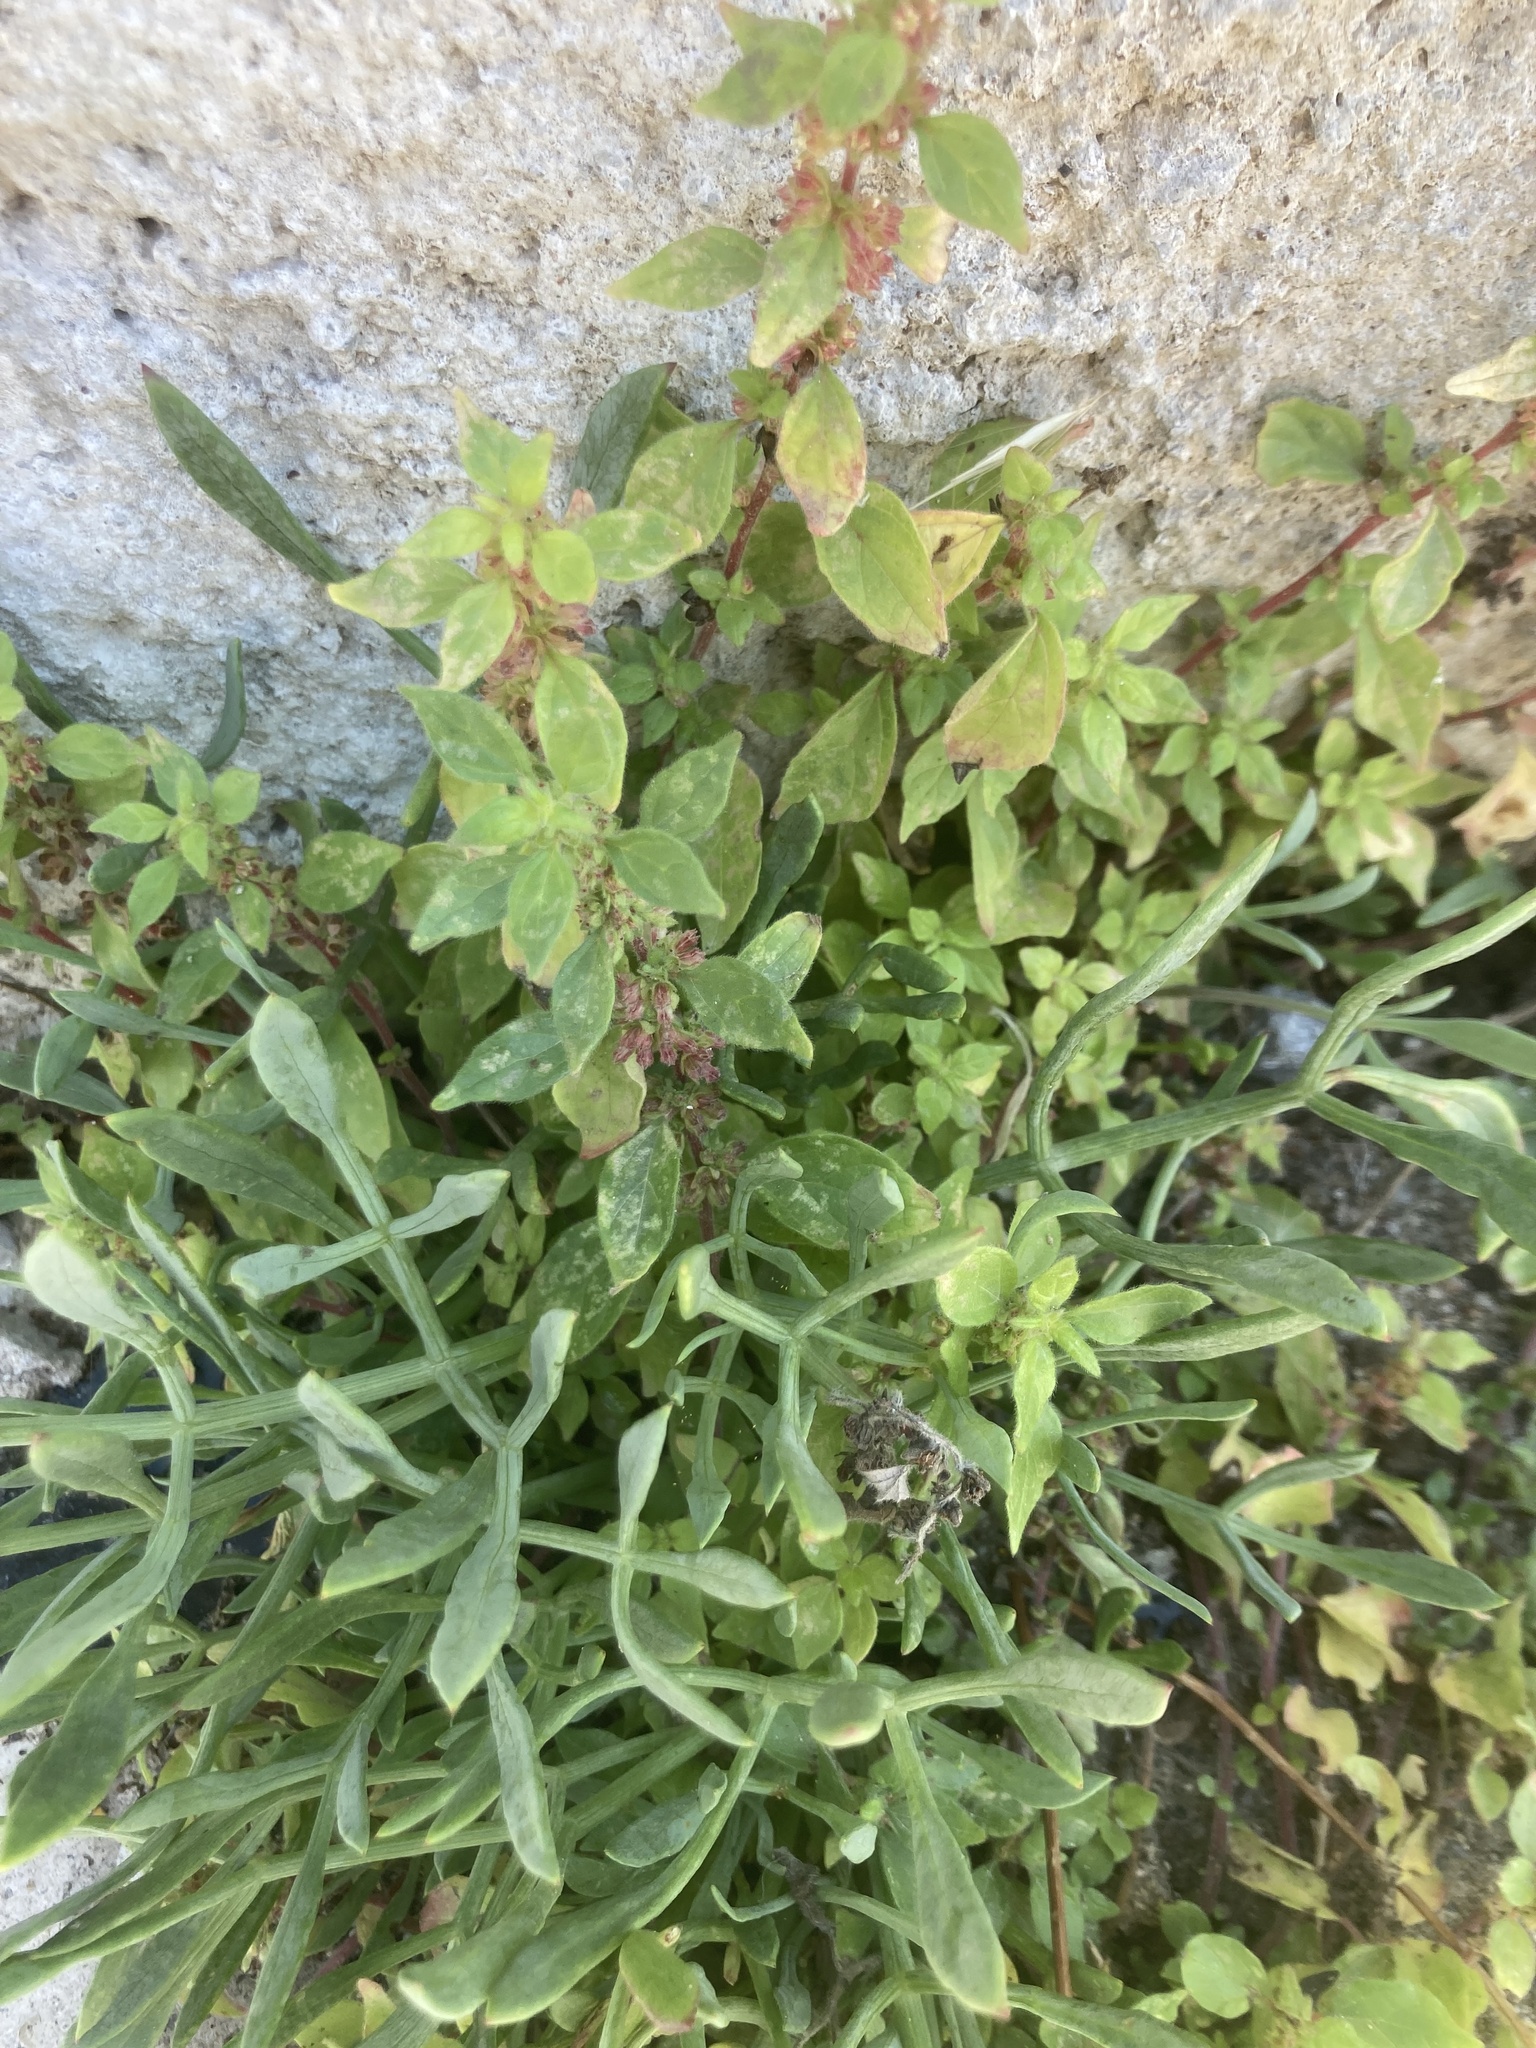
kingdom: Plantae
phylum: Tracheophyta
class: Magnoliopsida
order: Rosales
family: Urticaceae
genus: Parietaria
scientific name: Parietaria judaica
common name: Pellitory-of-the-wall
